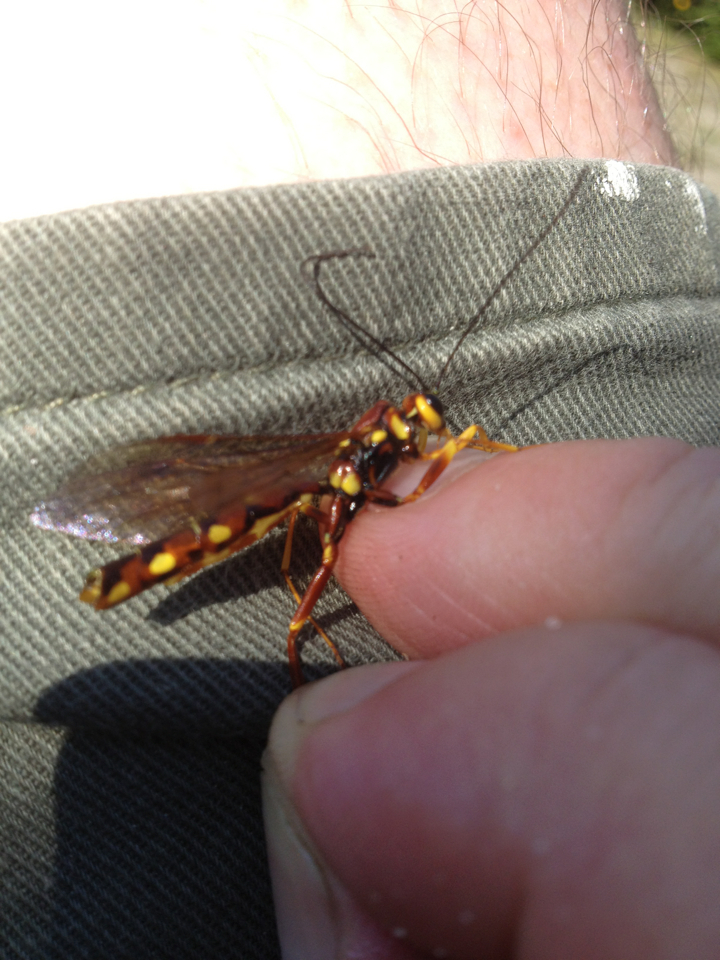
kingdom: Animalia
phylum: Arthropoda
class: Insecta
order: Hymenoptera
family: Ichneumonidae
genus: Megarhyssa
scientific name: Megarhyssa nortoni
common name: Norton's giant ichneumonid wasp
